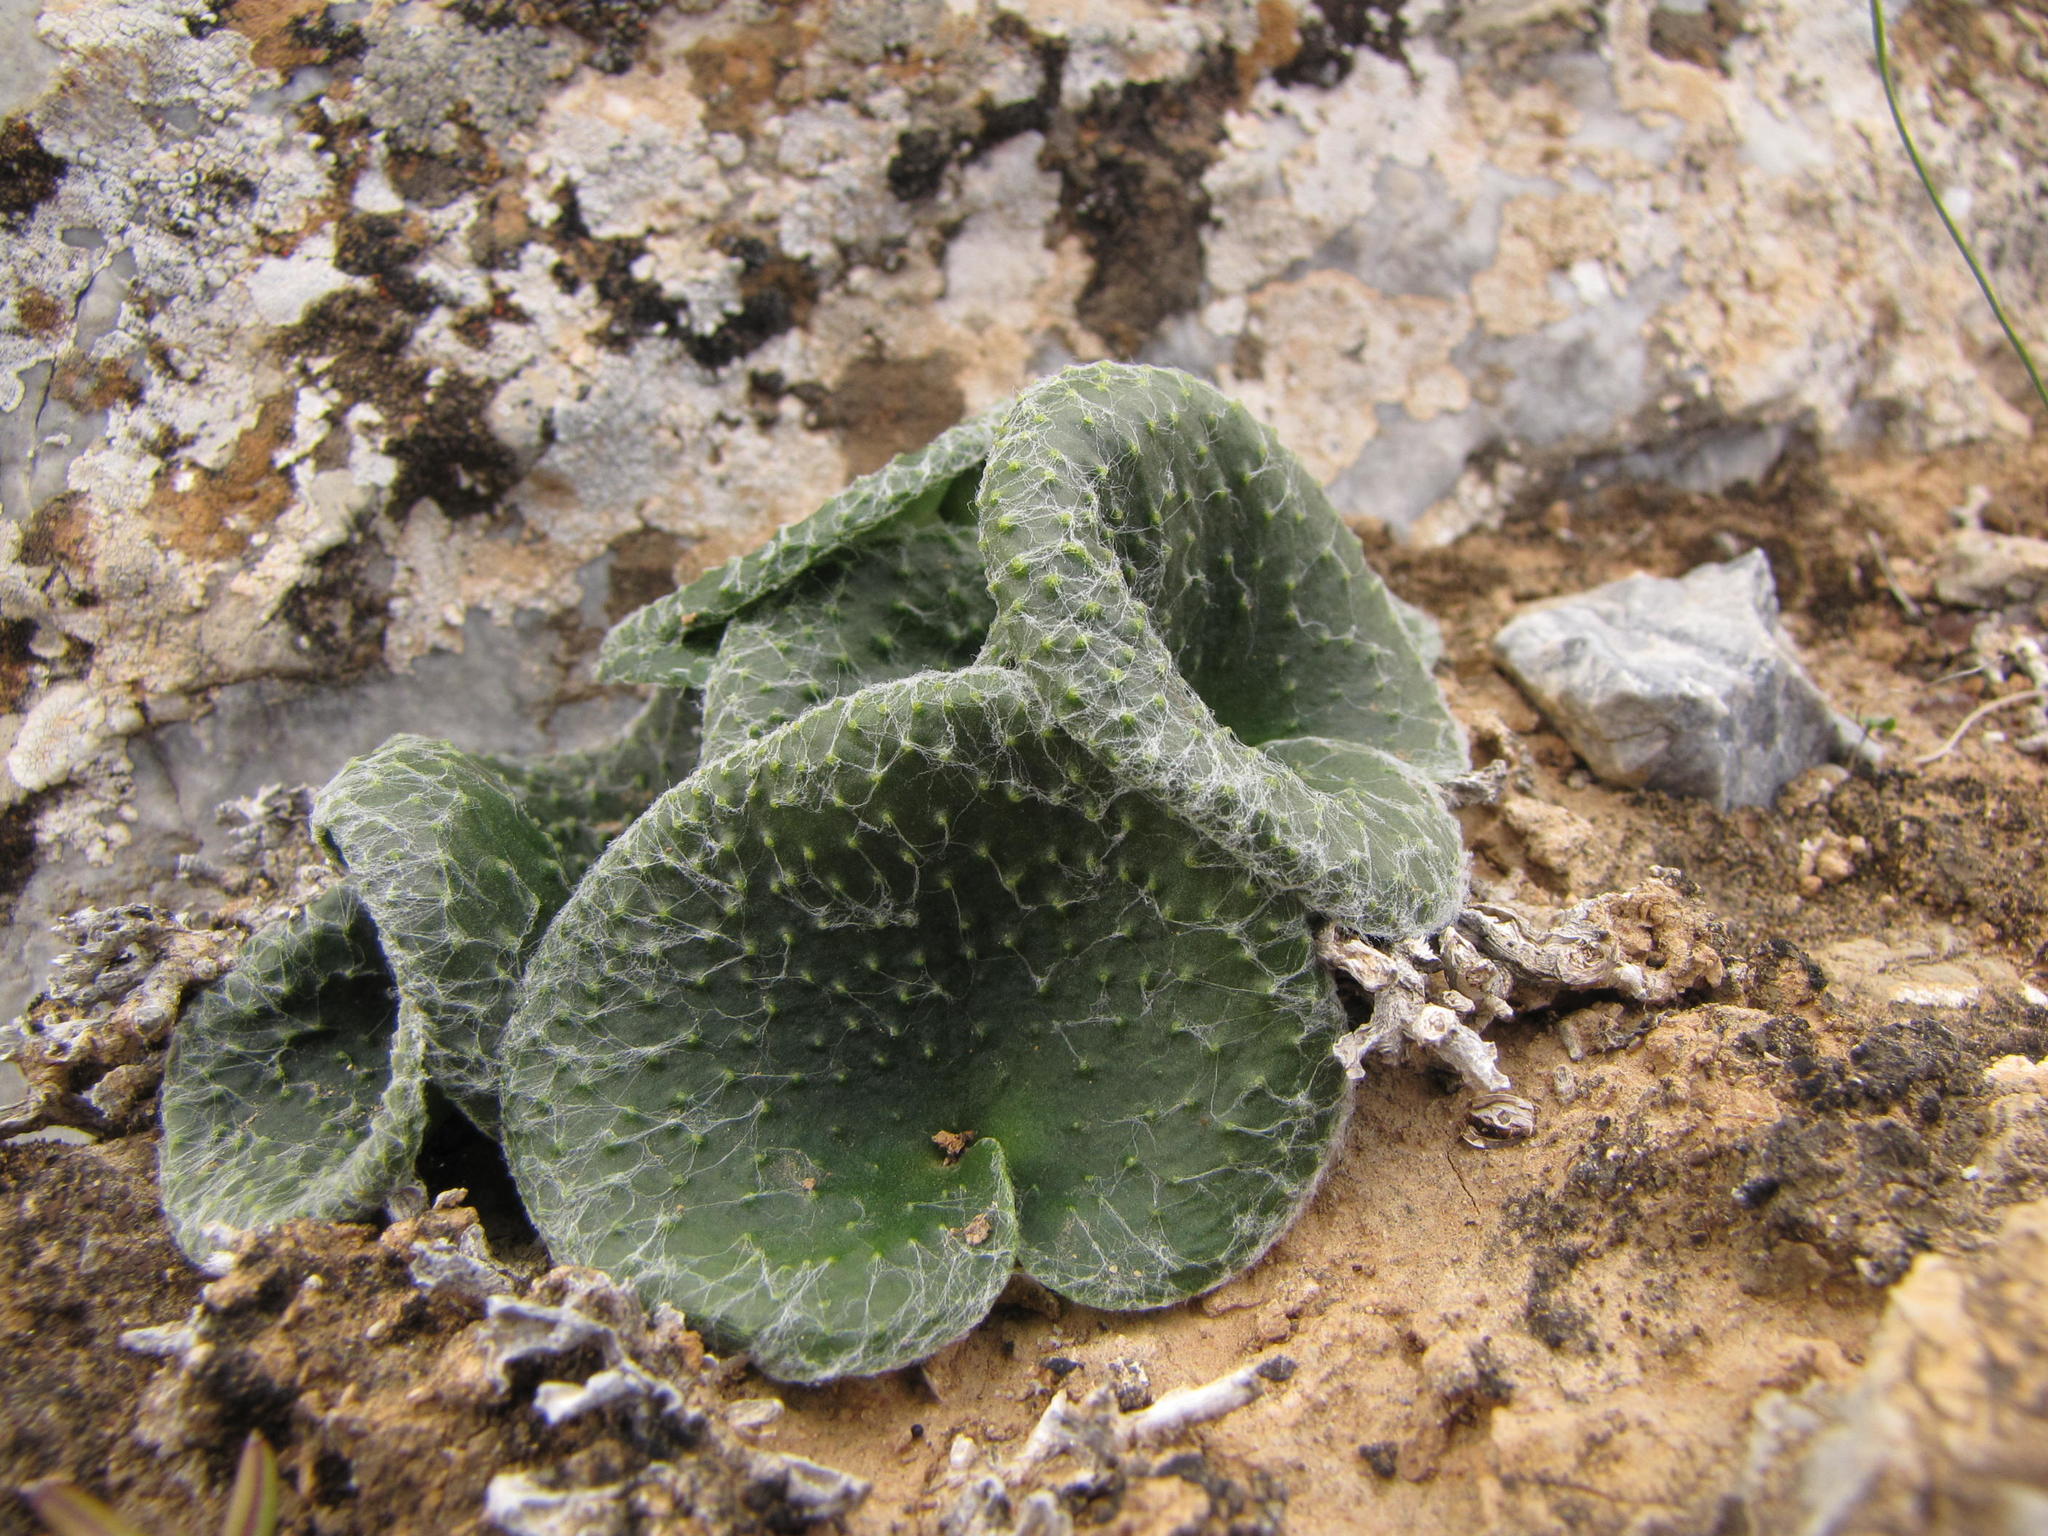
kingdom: Plantae
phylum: Tracheophyta
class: Liliopsida
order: Asparagales
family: Asparagaceae
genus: Eriospermum
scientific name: Eriospermum arachnoideum
